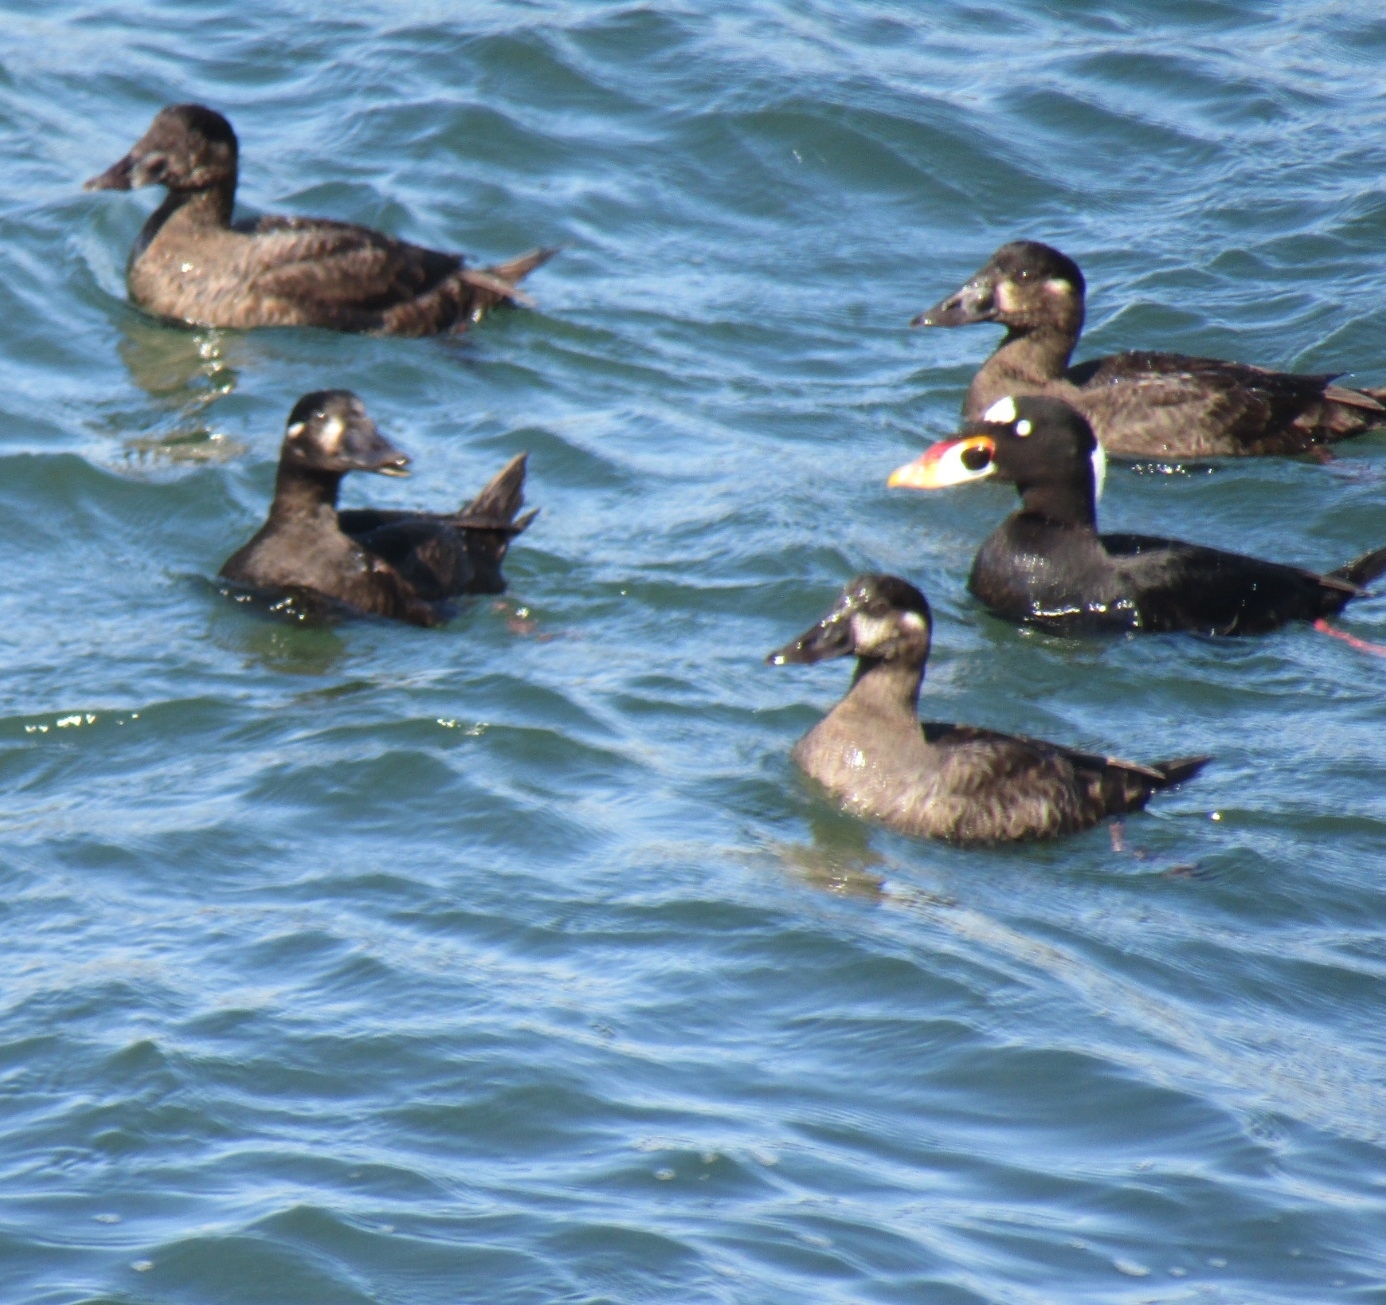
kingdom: Animalia
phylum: Chordata
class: Aves
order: Anseriformes
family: Anatidae
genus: Melanitta
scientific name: Melanitta perspicillata
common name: Surf scoter
